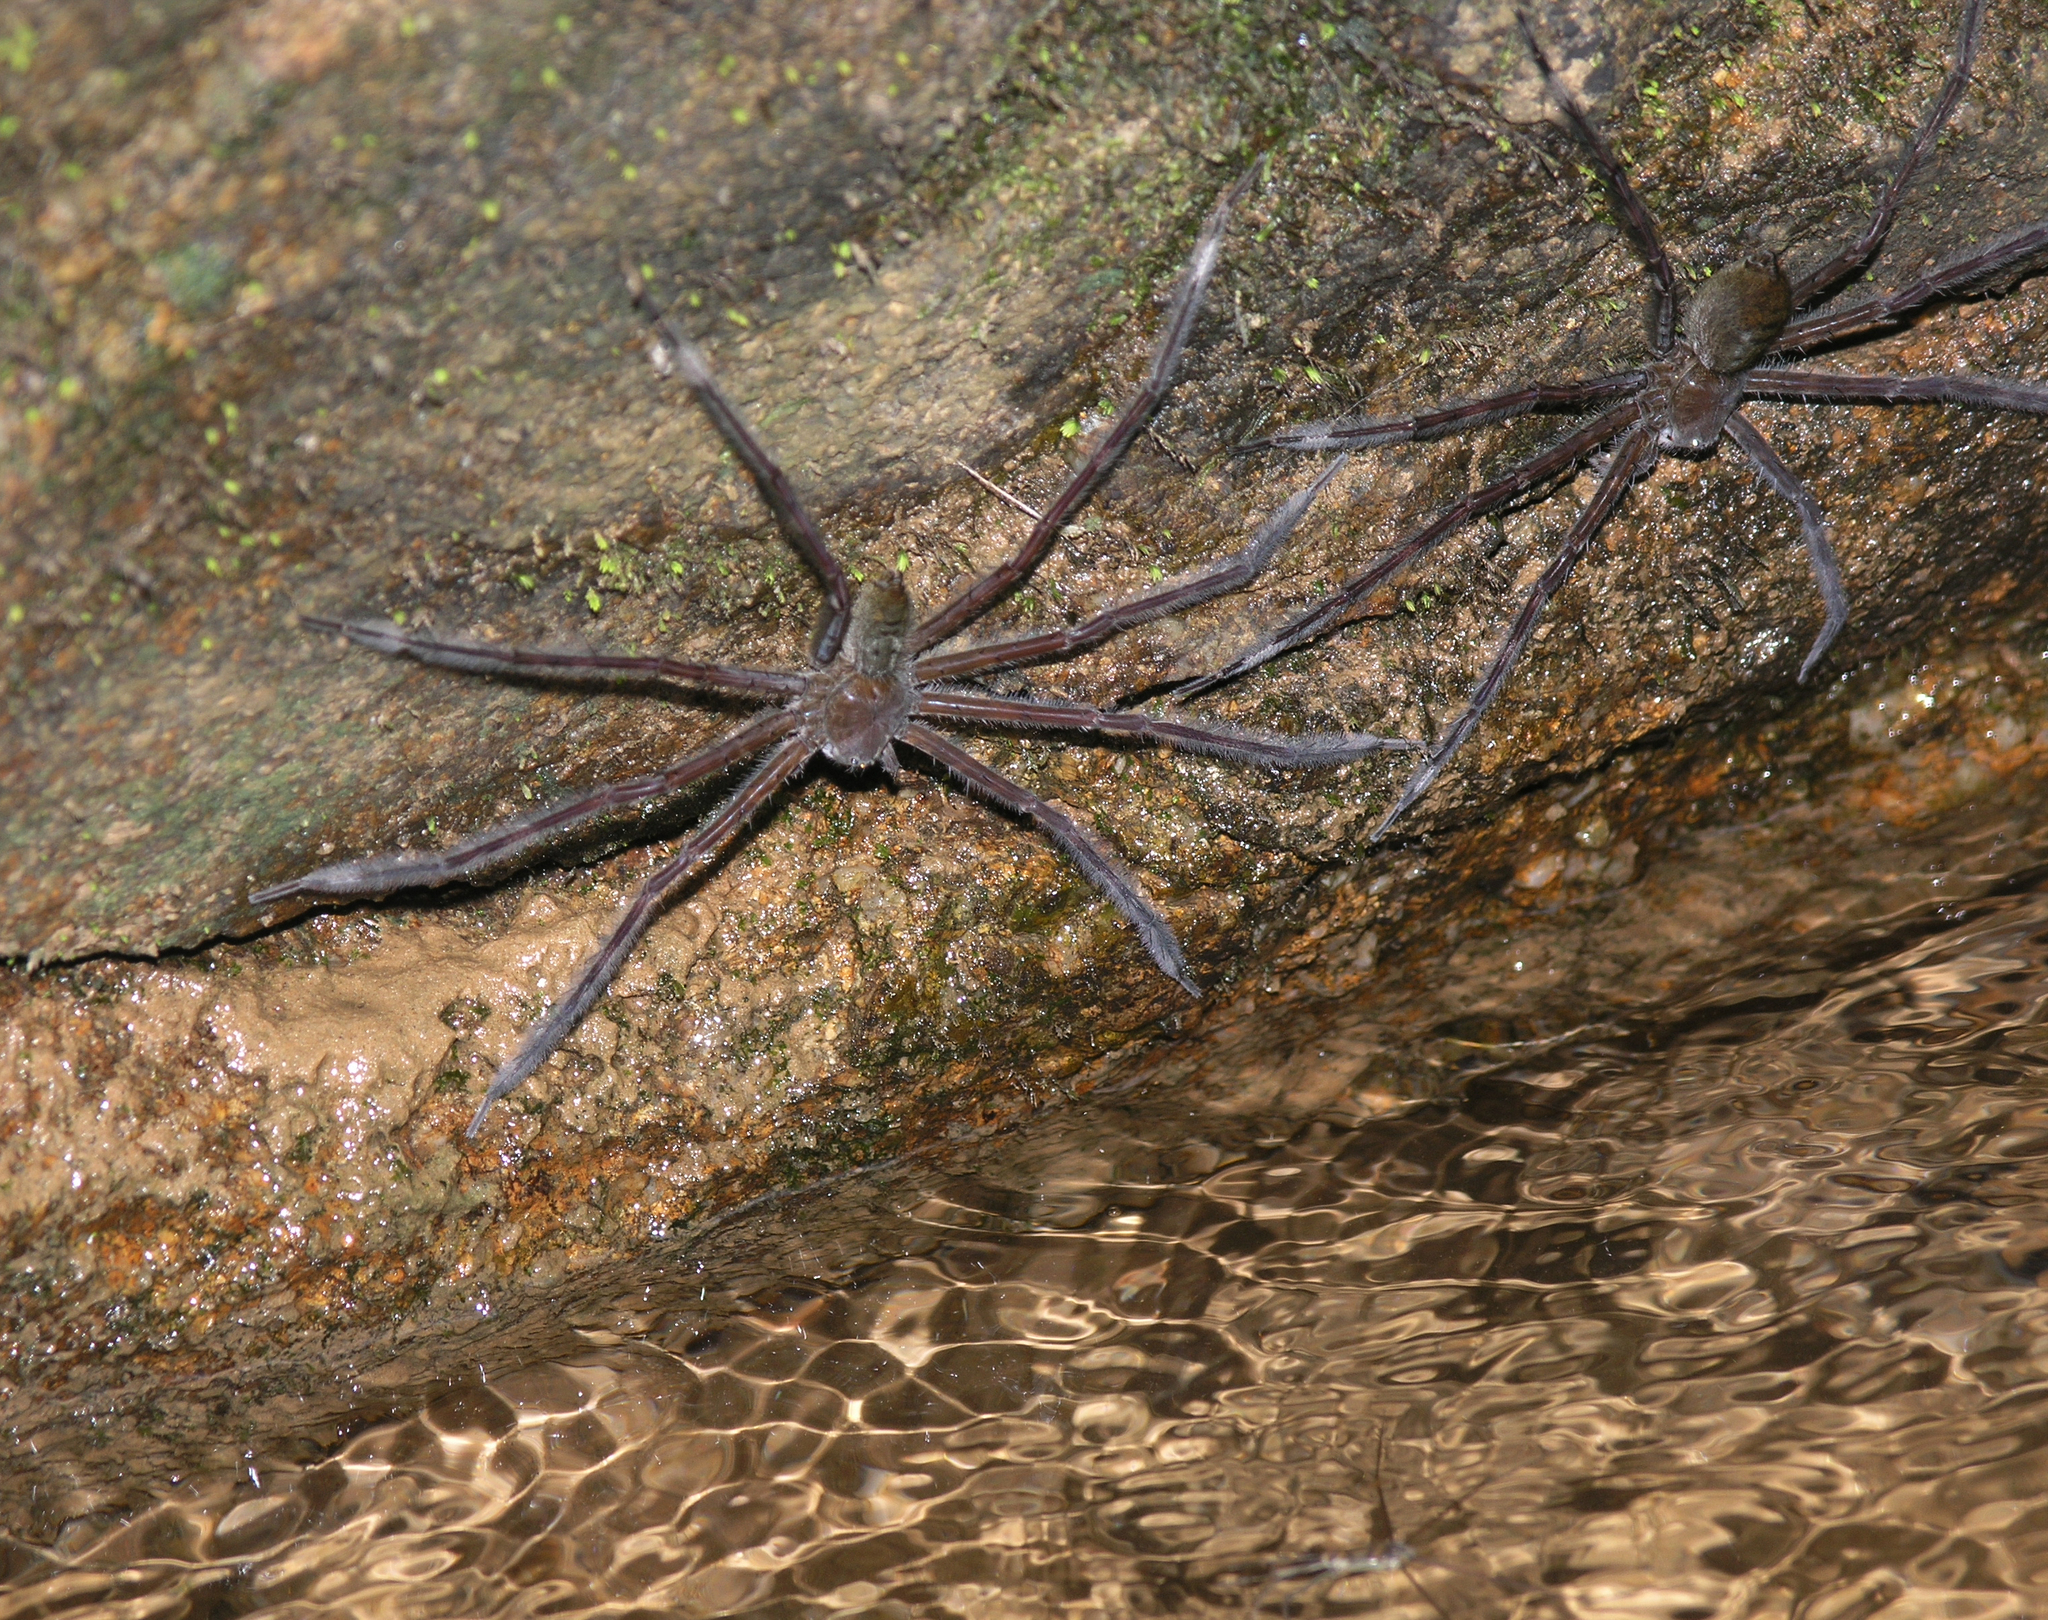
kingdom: Animalia
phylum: Arthropoda
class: Arachnida
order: Araneae
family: Pisauridae
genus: Qianlingula
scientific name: Qianlingula turbinata
